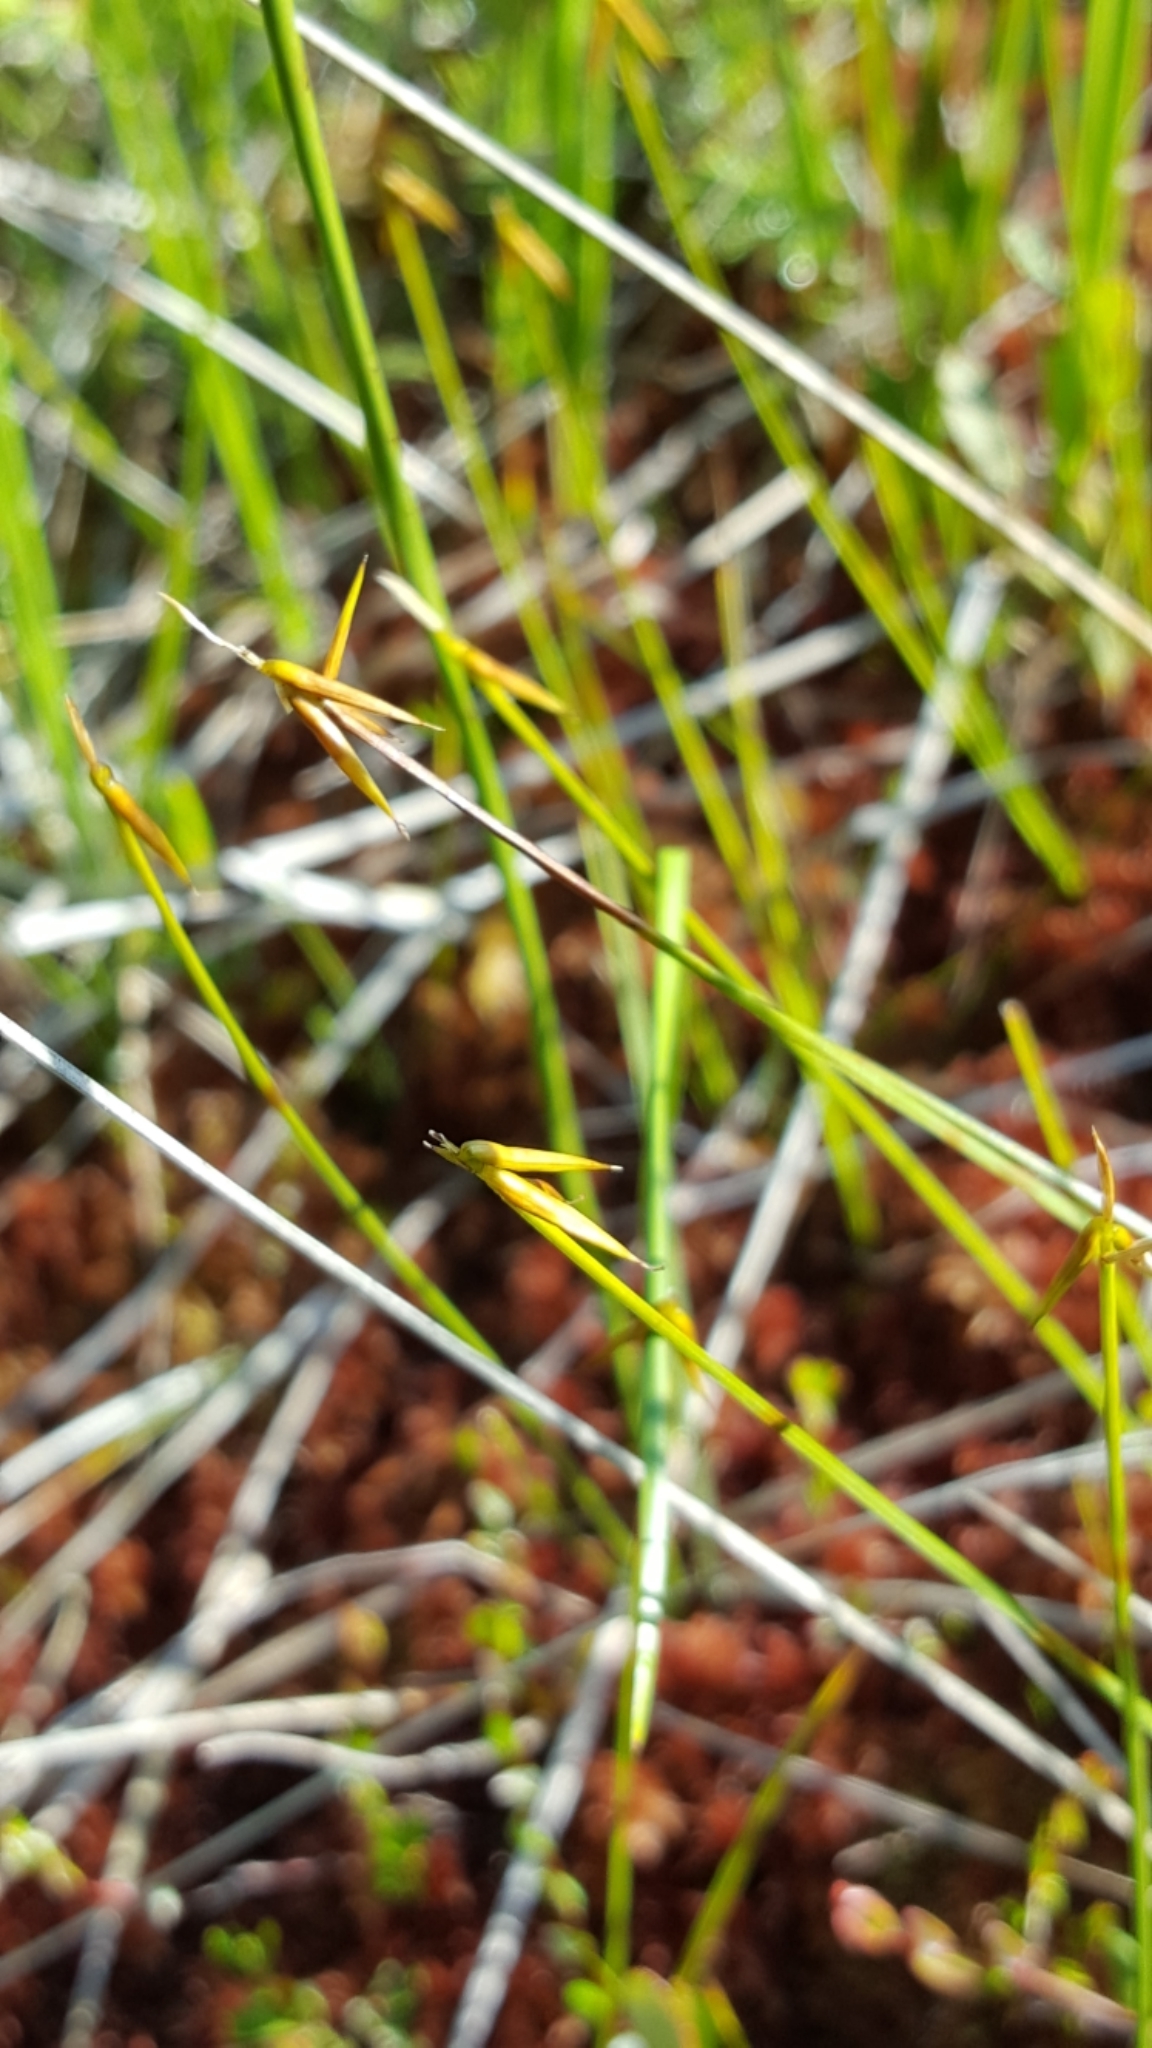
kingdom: Plantae
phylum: Tracheophyta
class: Liliopsida
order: Poales
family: Cyperaceae
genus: Carex
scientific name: Carex pauciflora
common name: Few-flowered sedge
